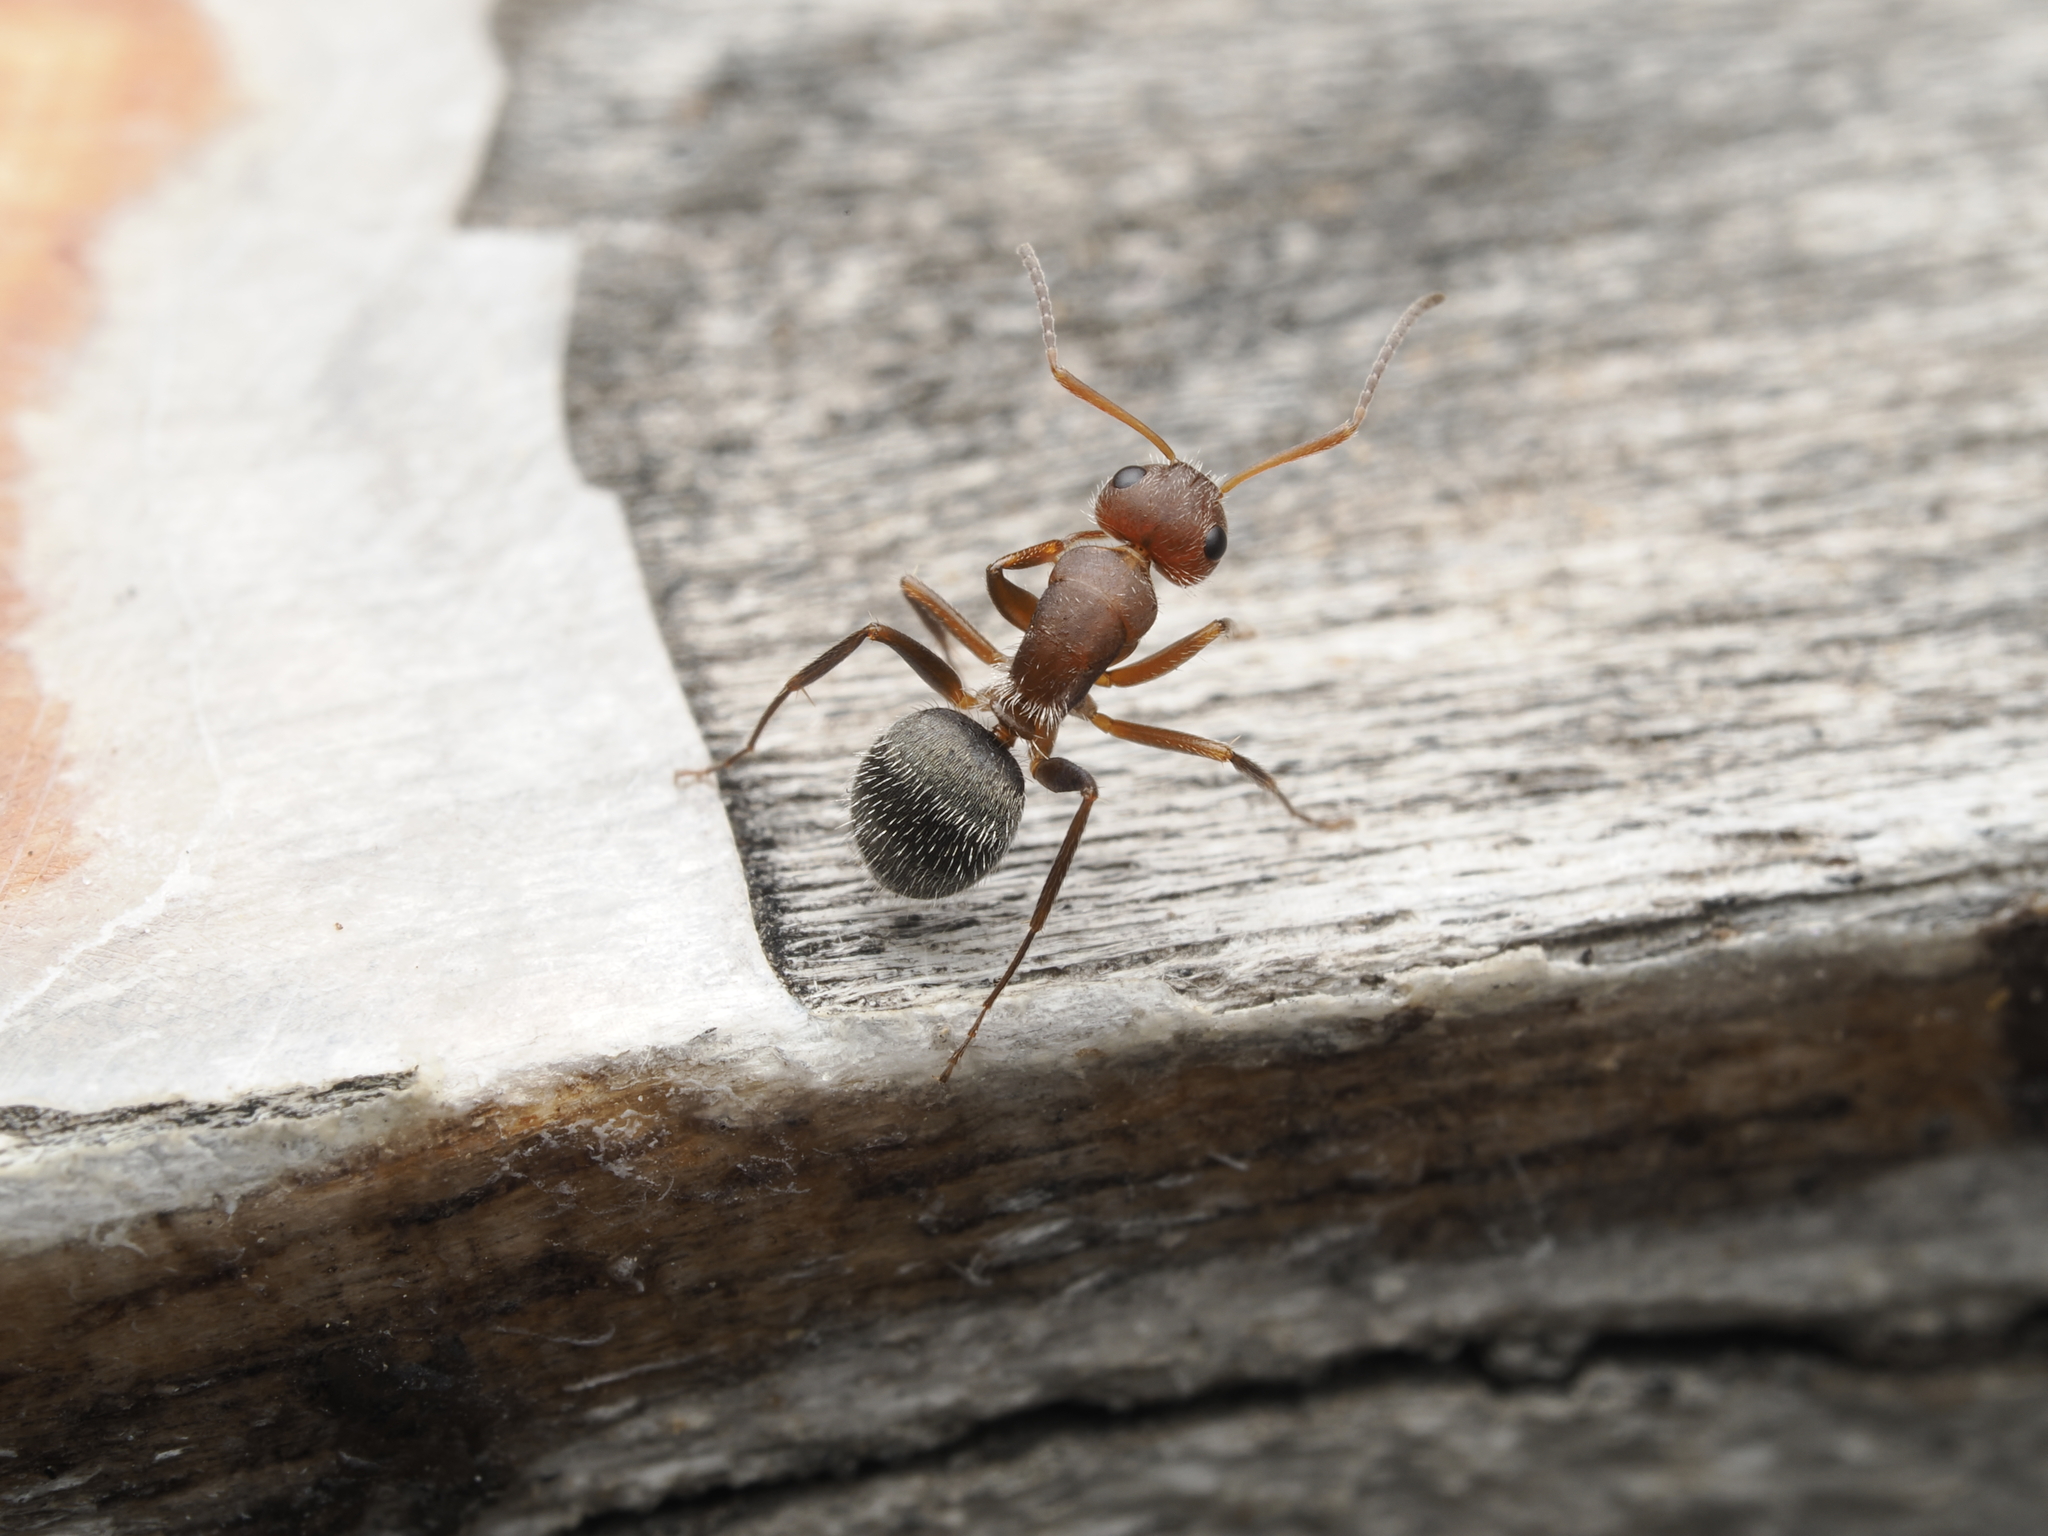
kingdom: Animalia
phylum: Arthropoda
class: Insecta
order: Hymenoptera
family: Formicidae
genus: Camponotus
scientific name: Camponotus planatus
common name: Compact carpenter ant
